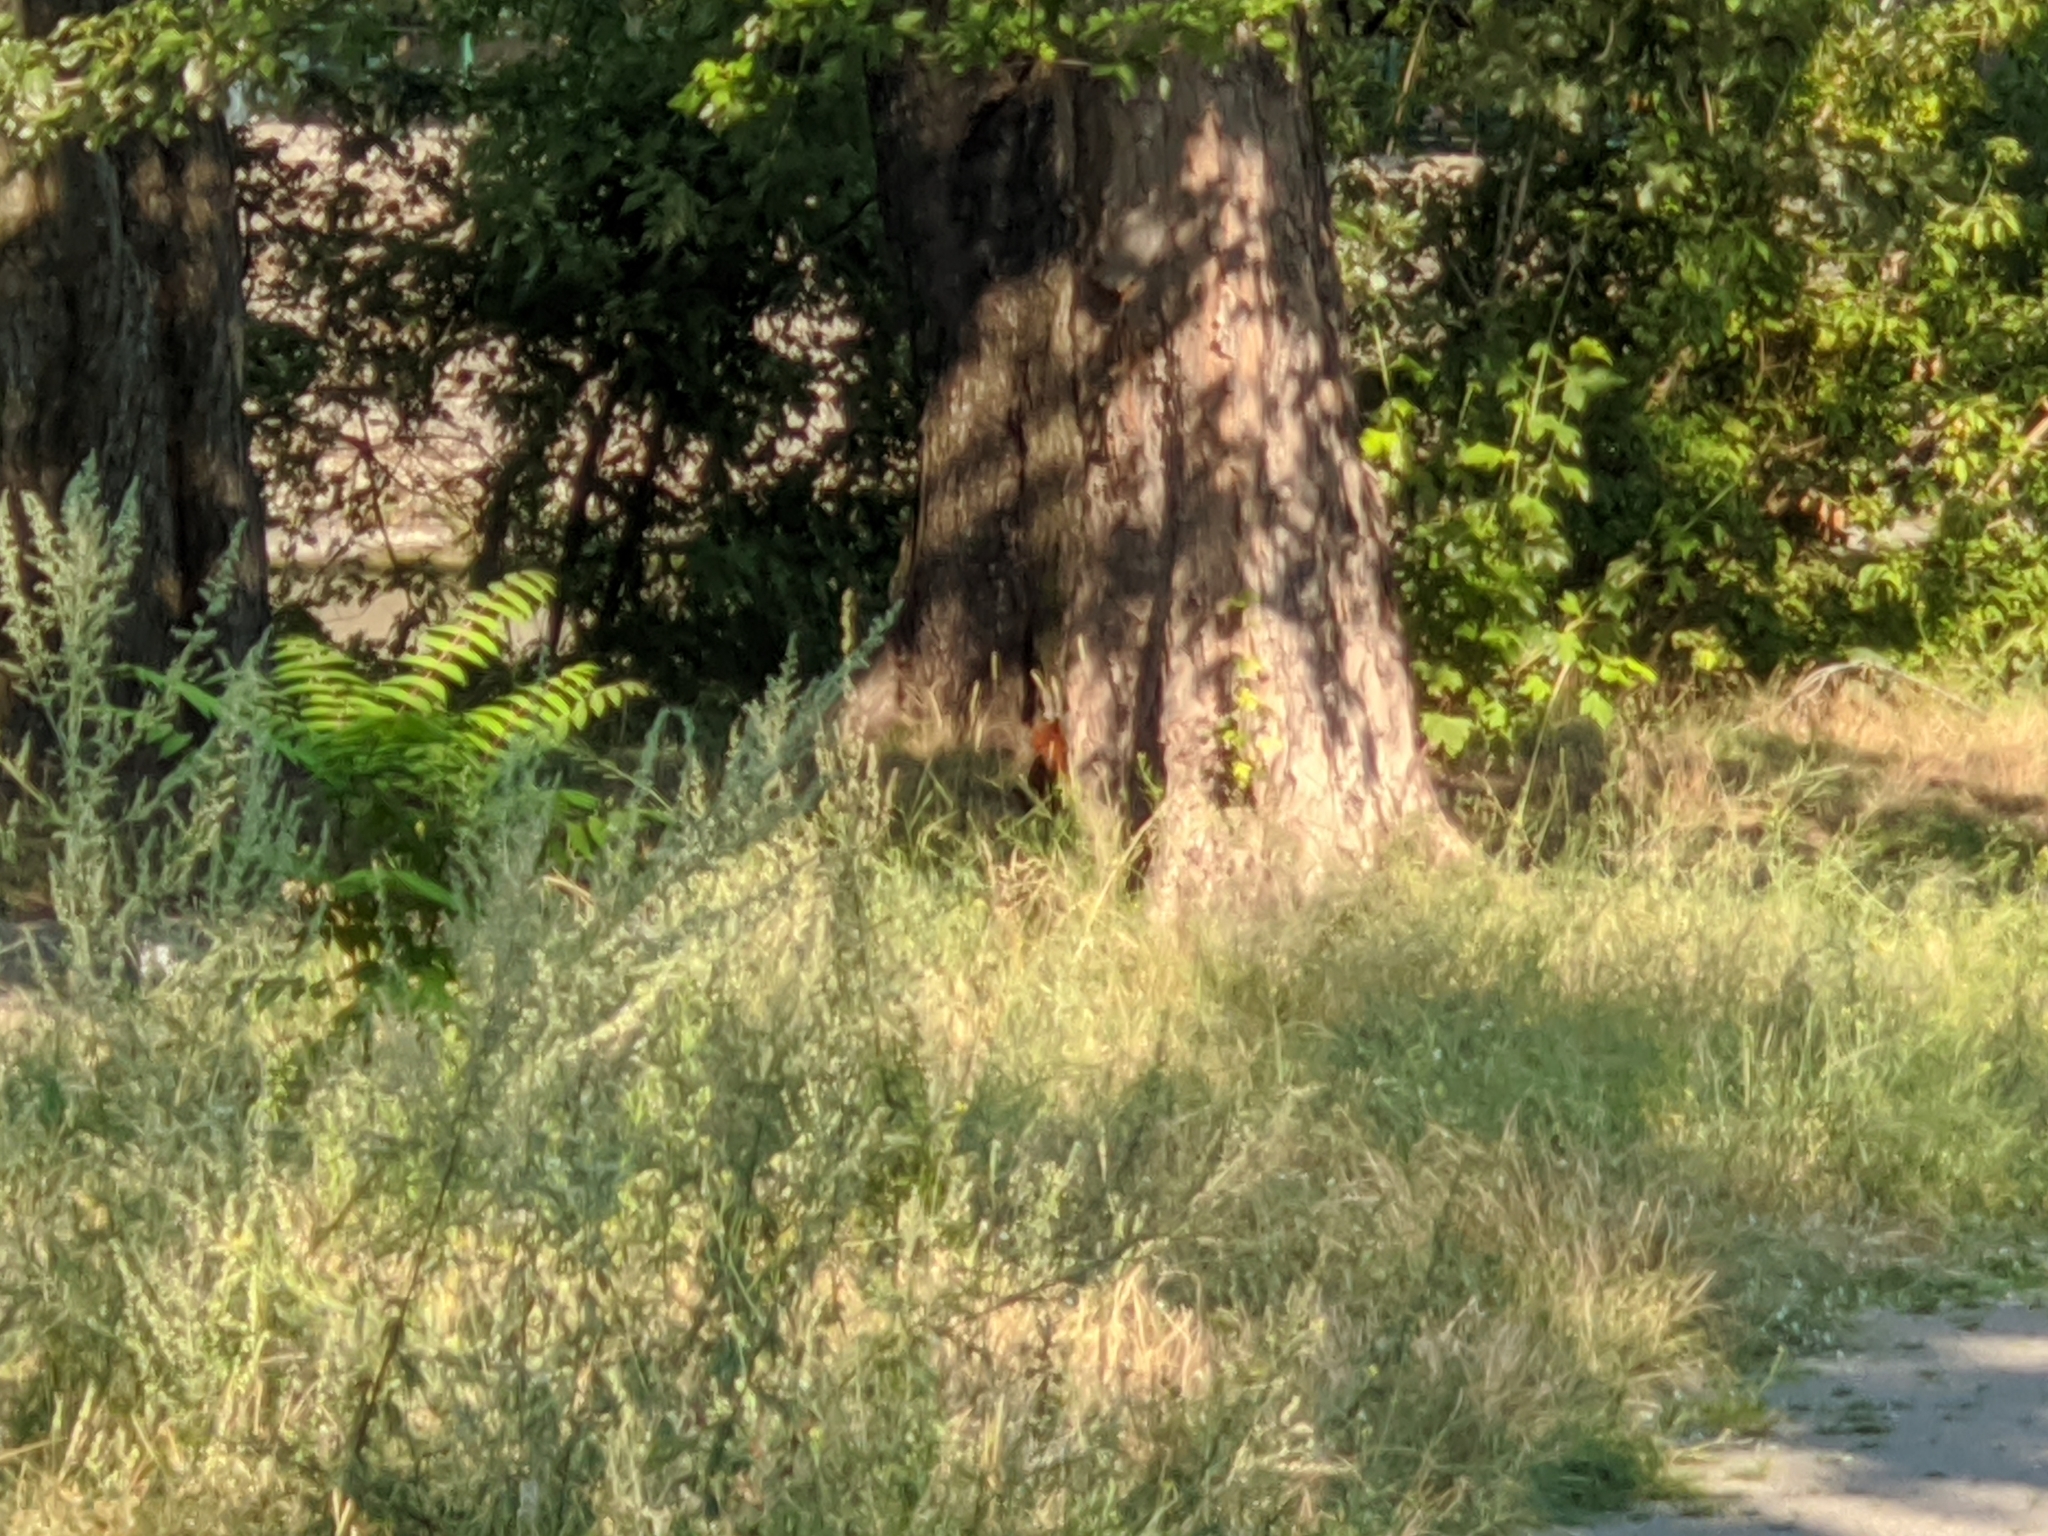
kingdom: Animalia
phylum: Chordata
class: Mammalia
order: Rodentia
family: Sciuridae
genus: Sciurus
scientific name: Sciurus vulgaris
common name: Eurasian red squirrel
